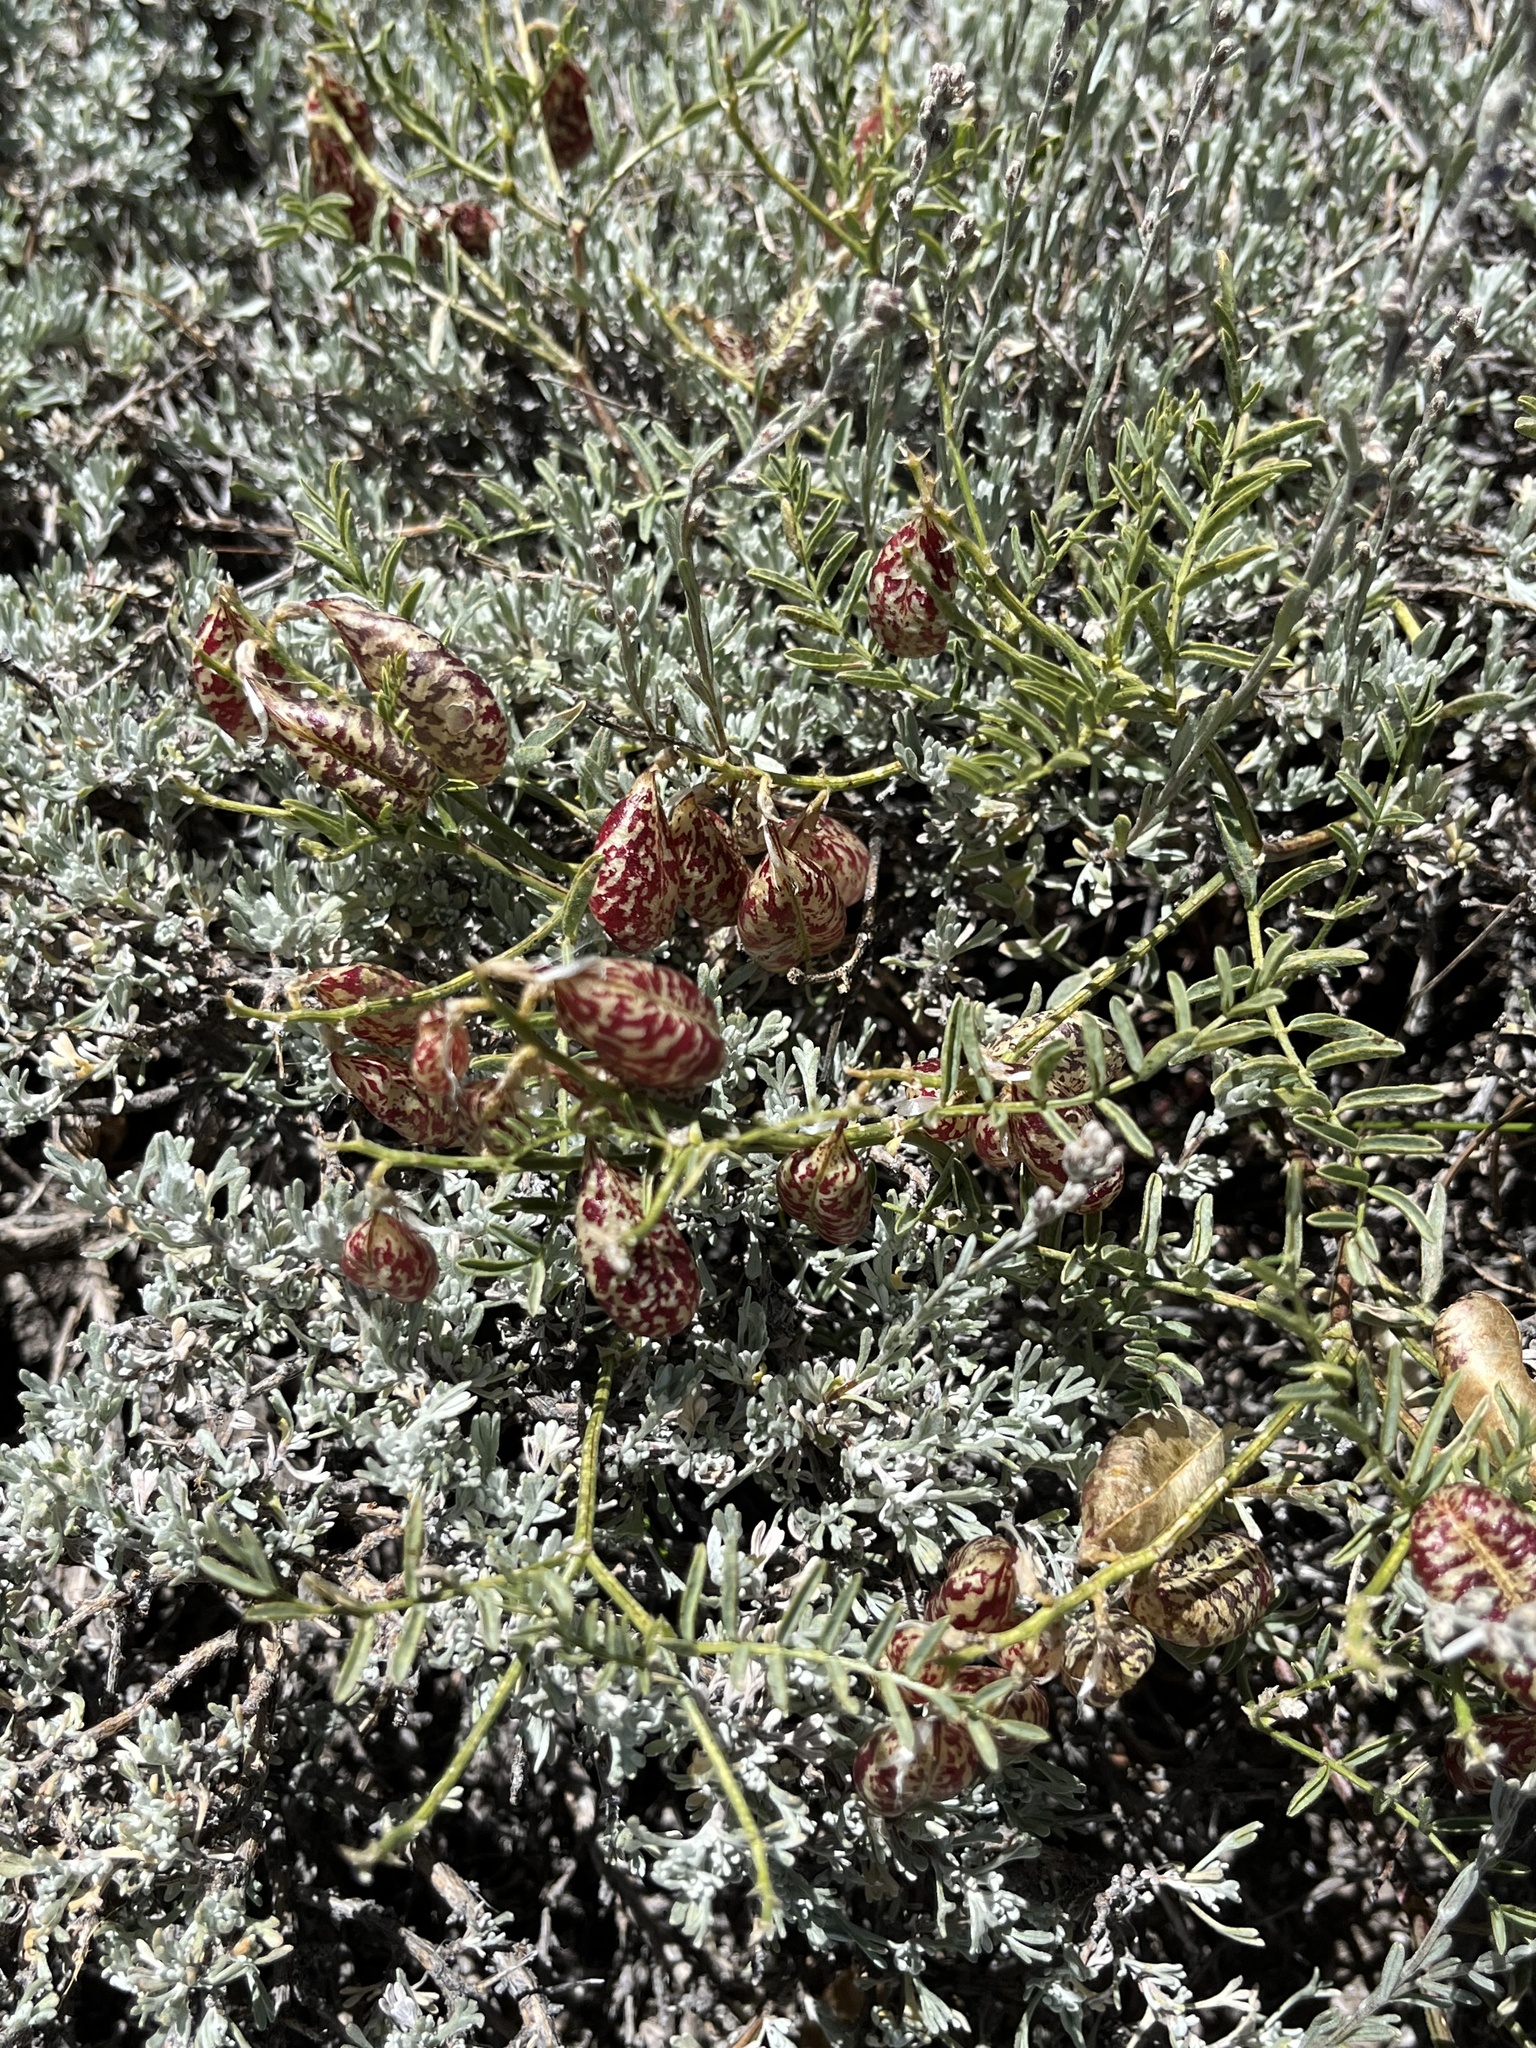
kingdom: Plantae
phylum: Tracheophyta
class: Magnoliopsida
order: Fabales
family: Fabaceae
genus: Astragalus
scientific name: Astragalus whitneyi
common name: Balloonpod milkvetch
